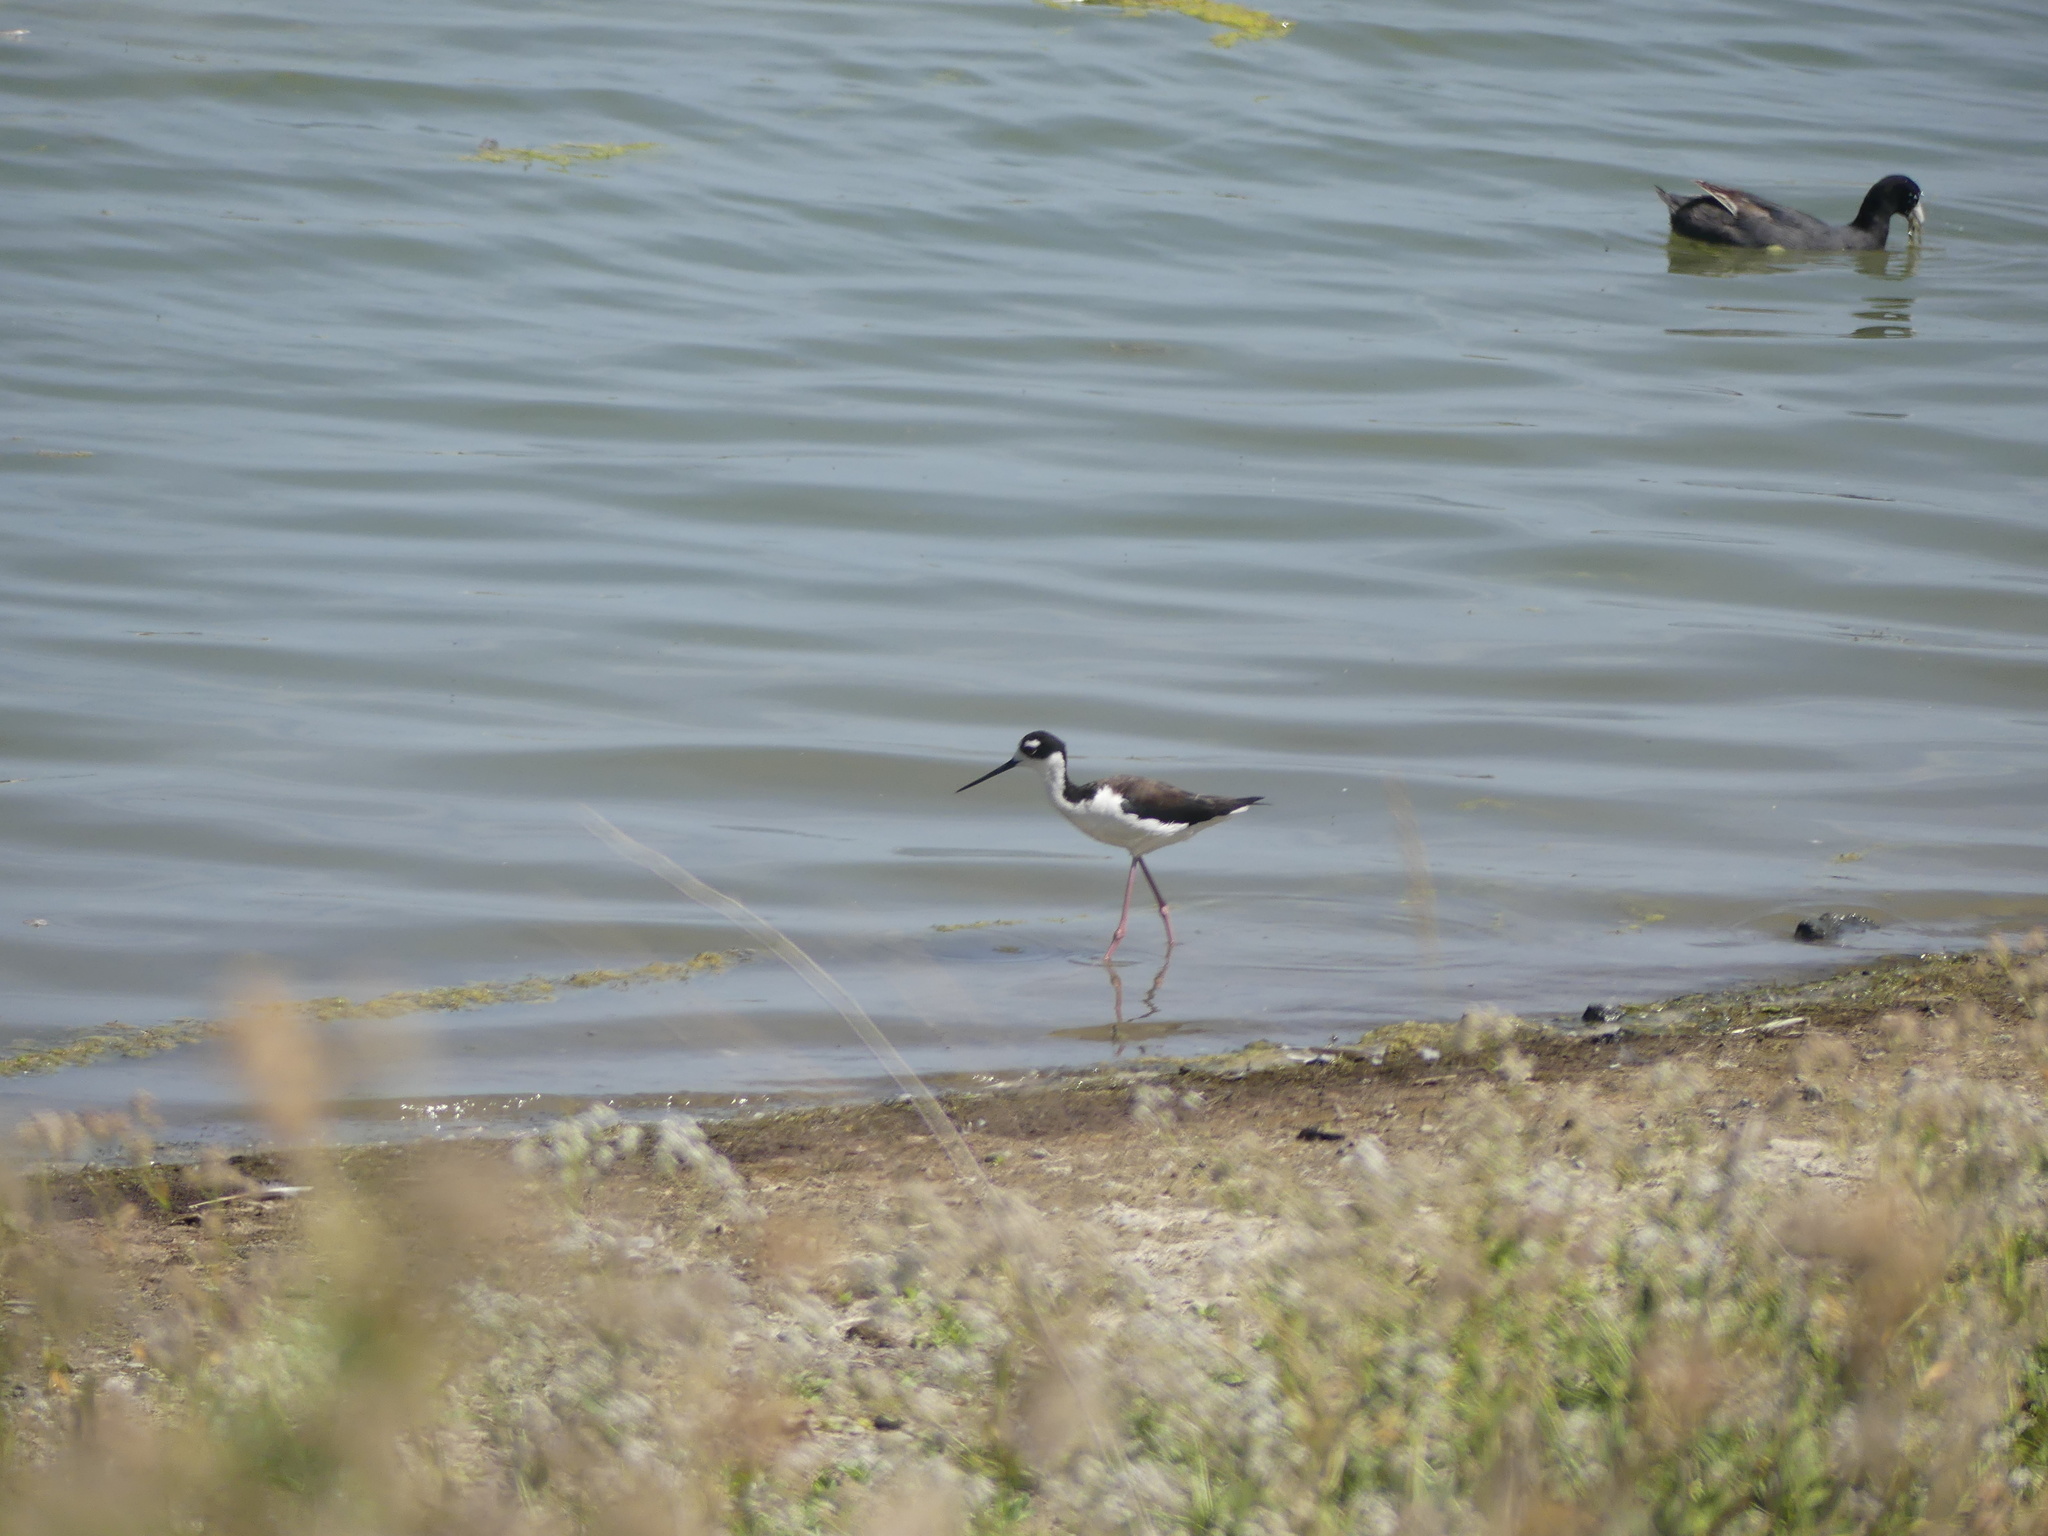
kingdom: Animalia
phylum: Chordata
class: Aves
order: Charadriiformes
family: Recurvirostridae
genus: Himantopus
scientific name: Himantopus mexicanus
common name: Black-necked stilt
